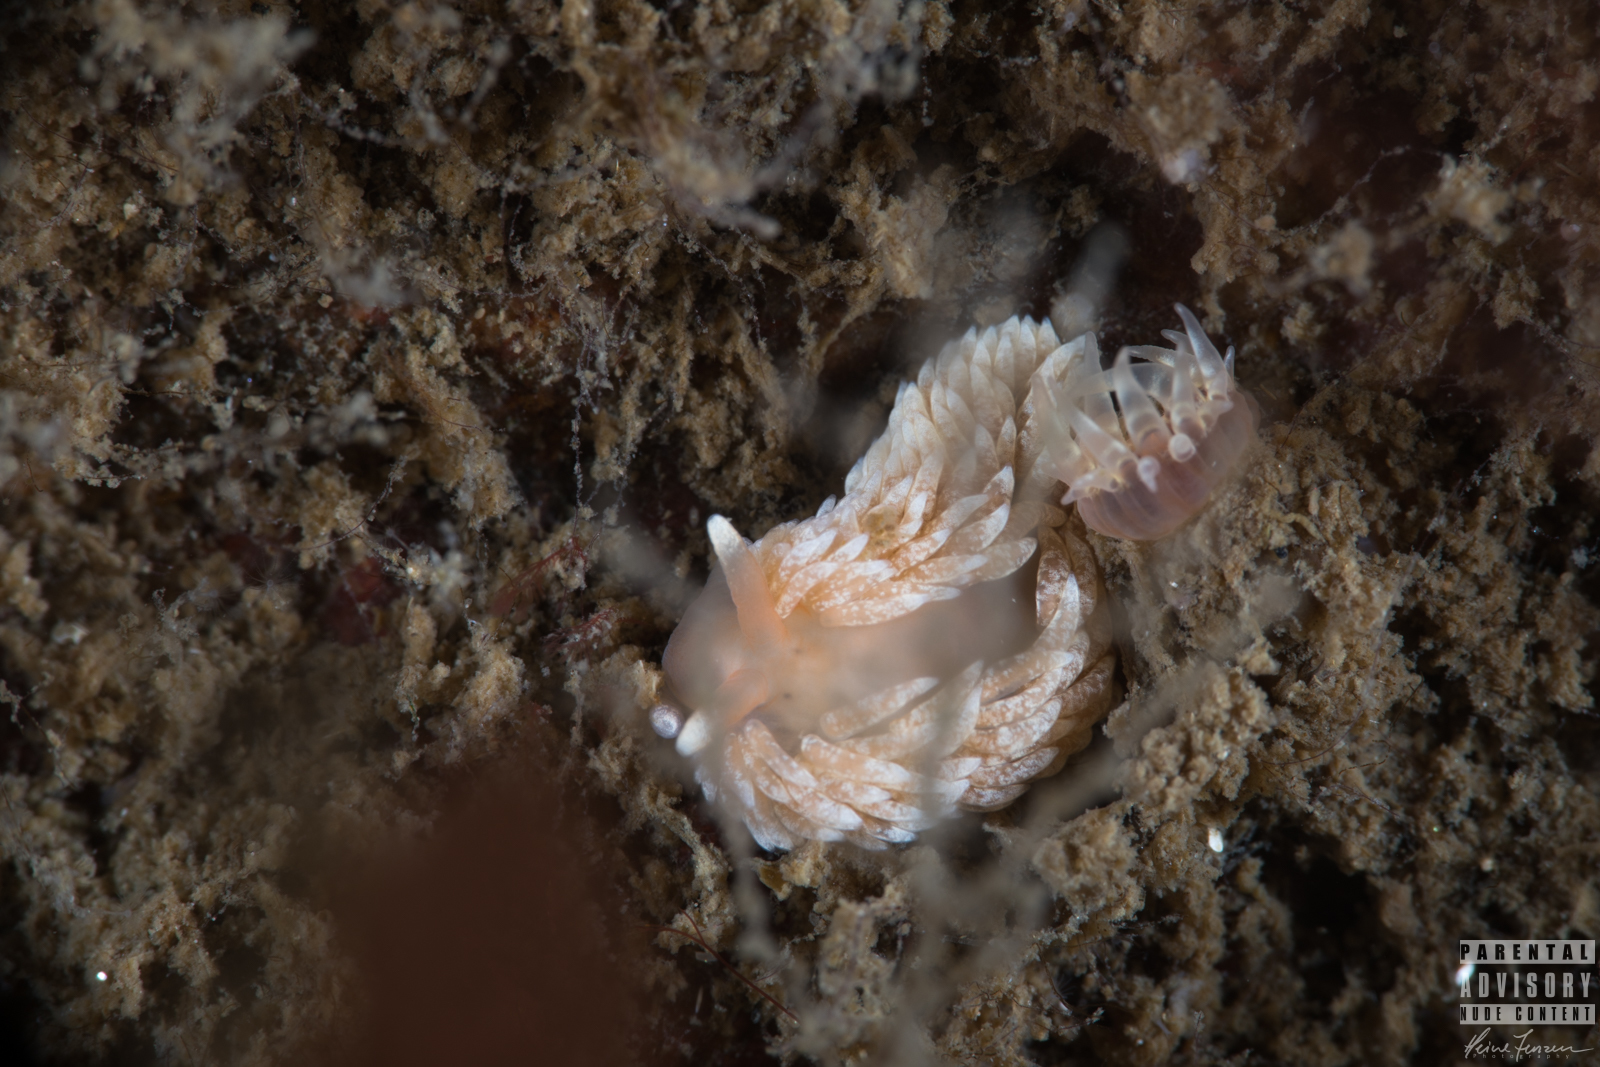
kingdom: Animalia
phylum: Mollusca
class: Gastropoda
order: Nudibranchia
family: Aeolidiidae
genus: Aeolidiella
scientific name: Aeolidiella glauca
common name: Orange-brown aeolid
